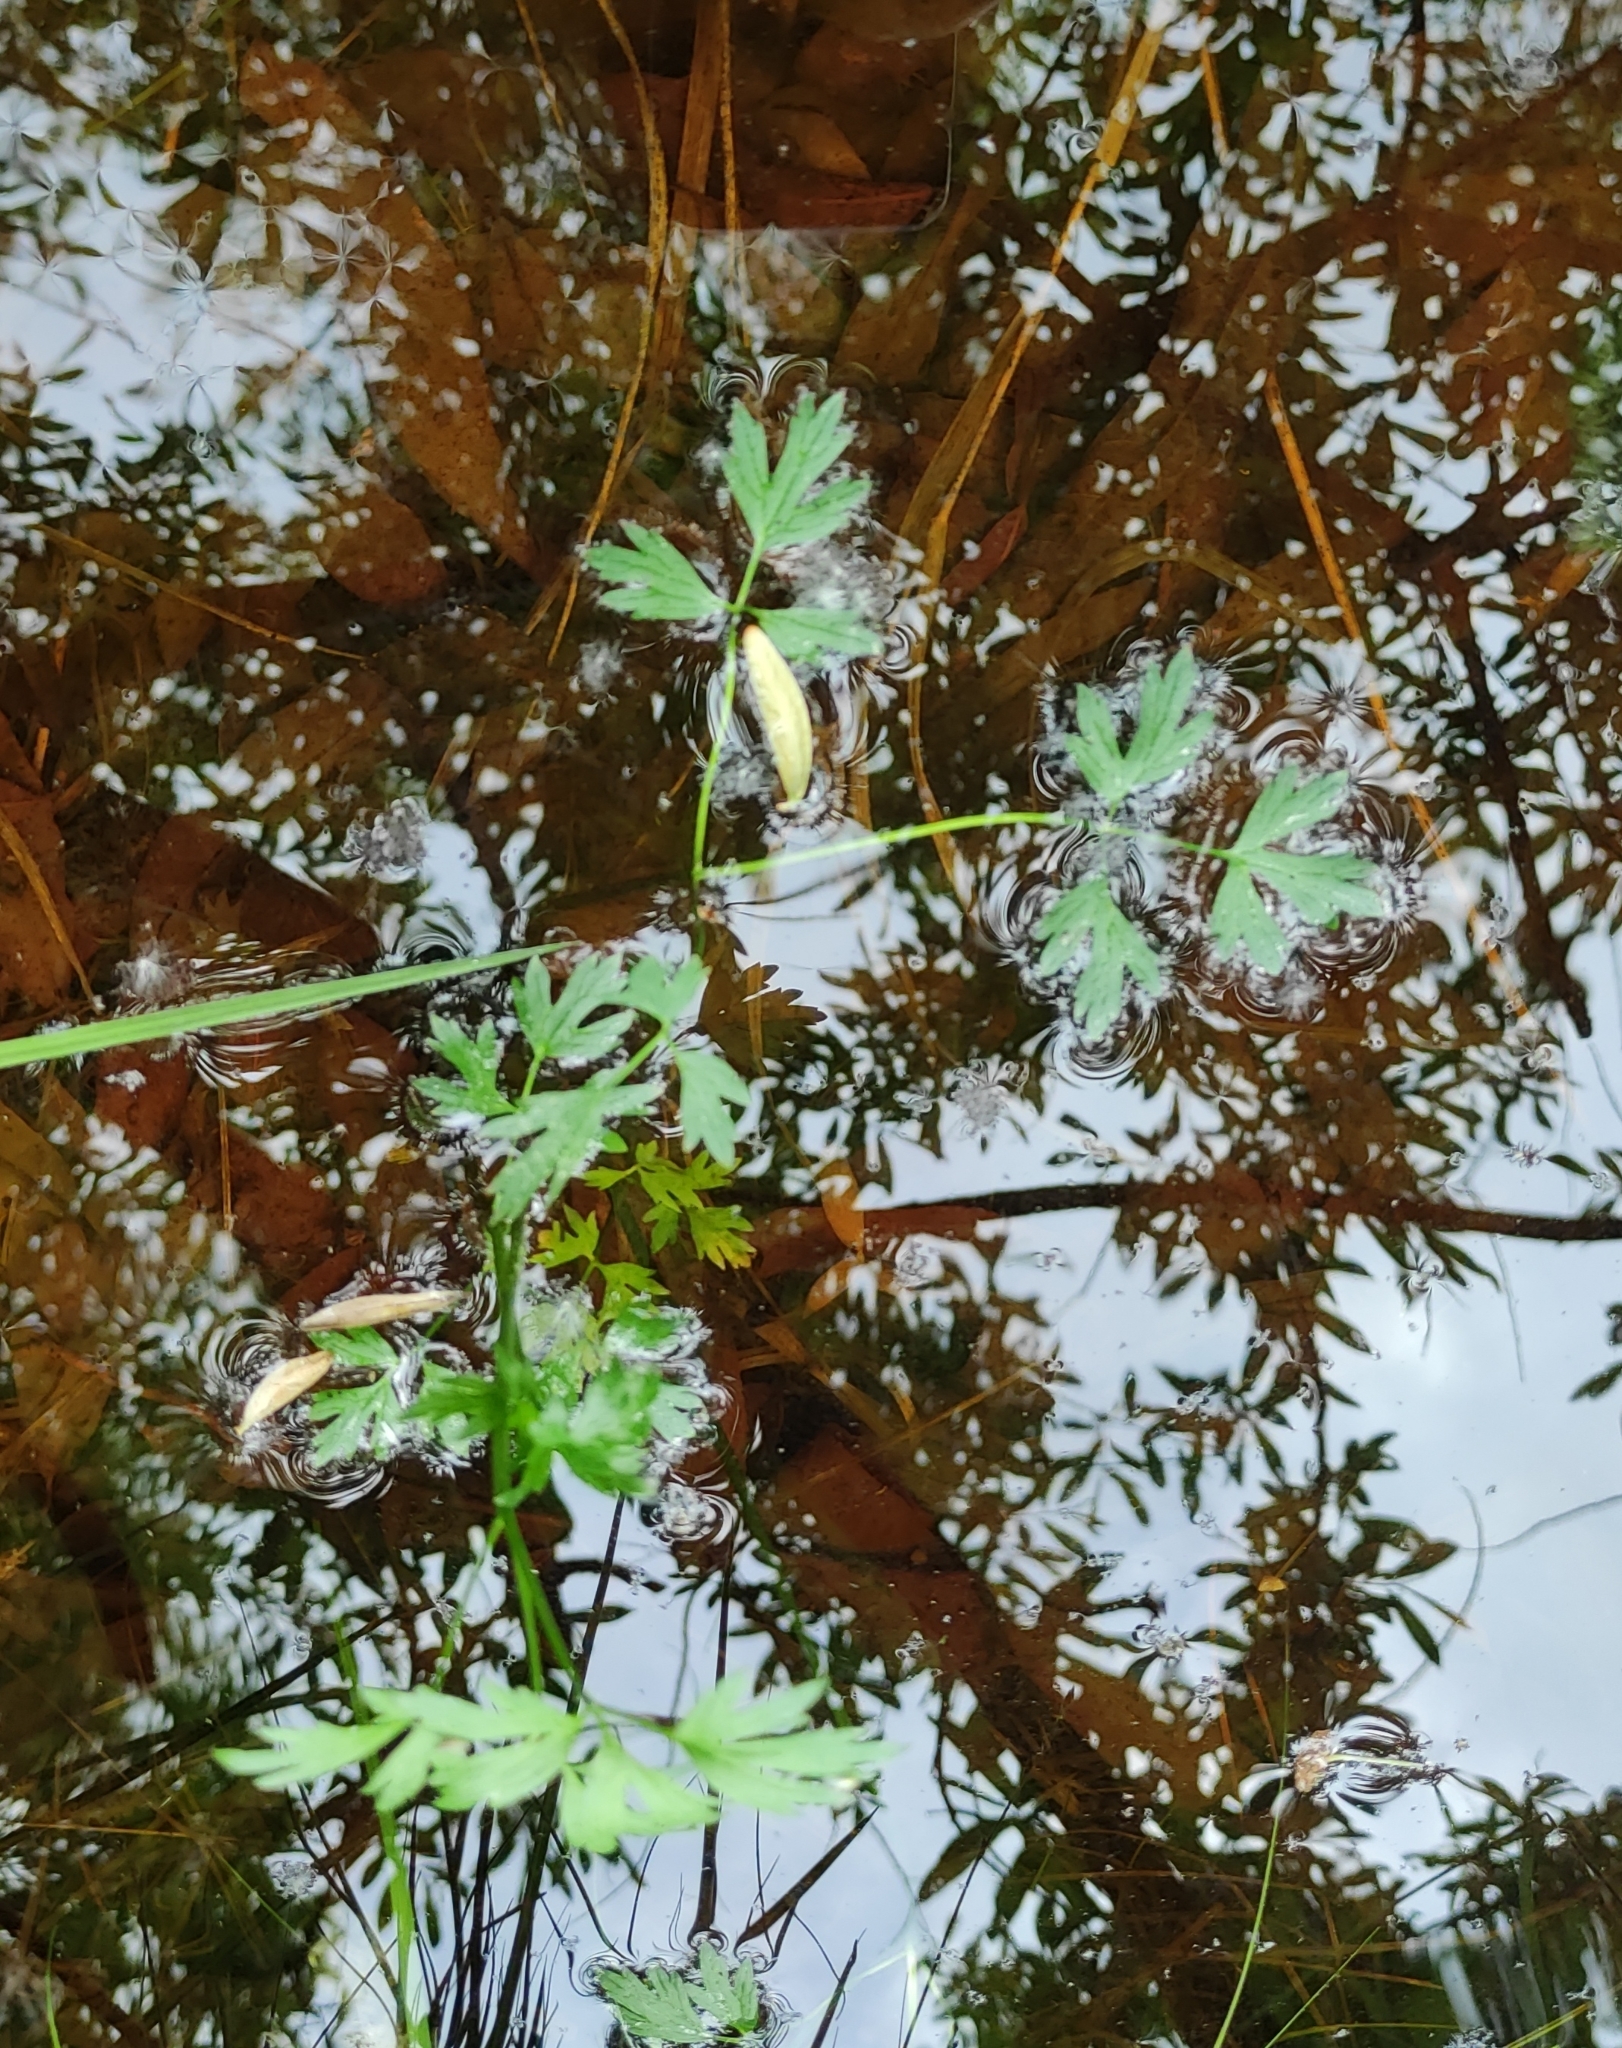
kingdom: Plantae
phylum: Tracheophyta
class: Magnoliopsida
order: Ranunculales
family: Ranunculaceae
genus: Ranunculus
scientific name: Ranunculus repens
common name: Creeping buttercup
